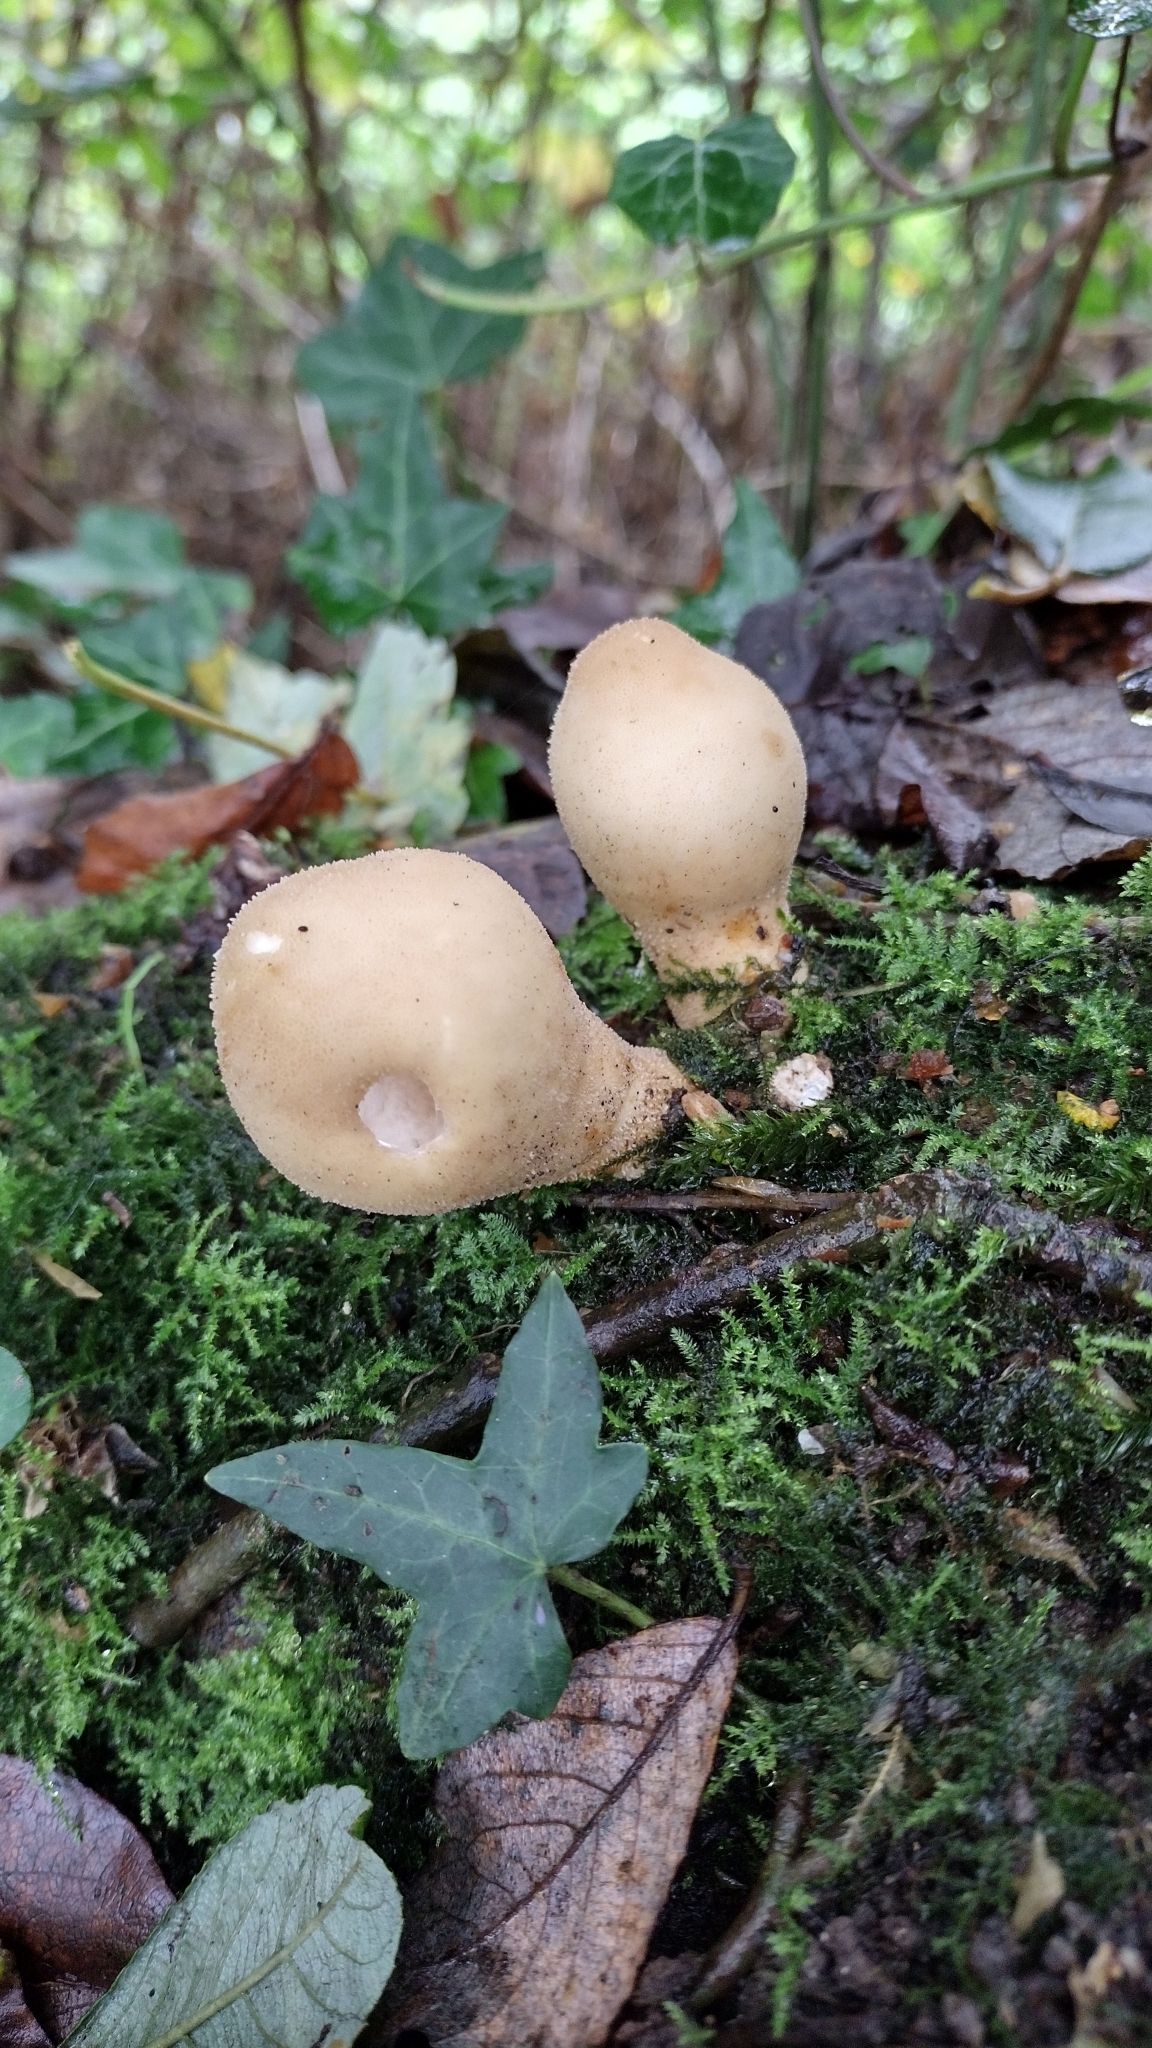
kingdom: Fungi
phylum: Basidiomycota
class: Agaricomycetes
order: Agaricales
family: Lycoperdaceae
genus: Apioperdon
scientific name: Apioperdon pyriforme
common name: Pear-shaped puffball
